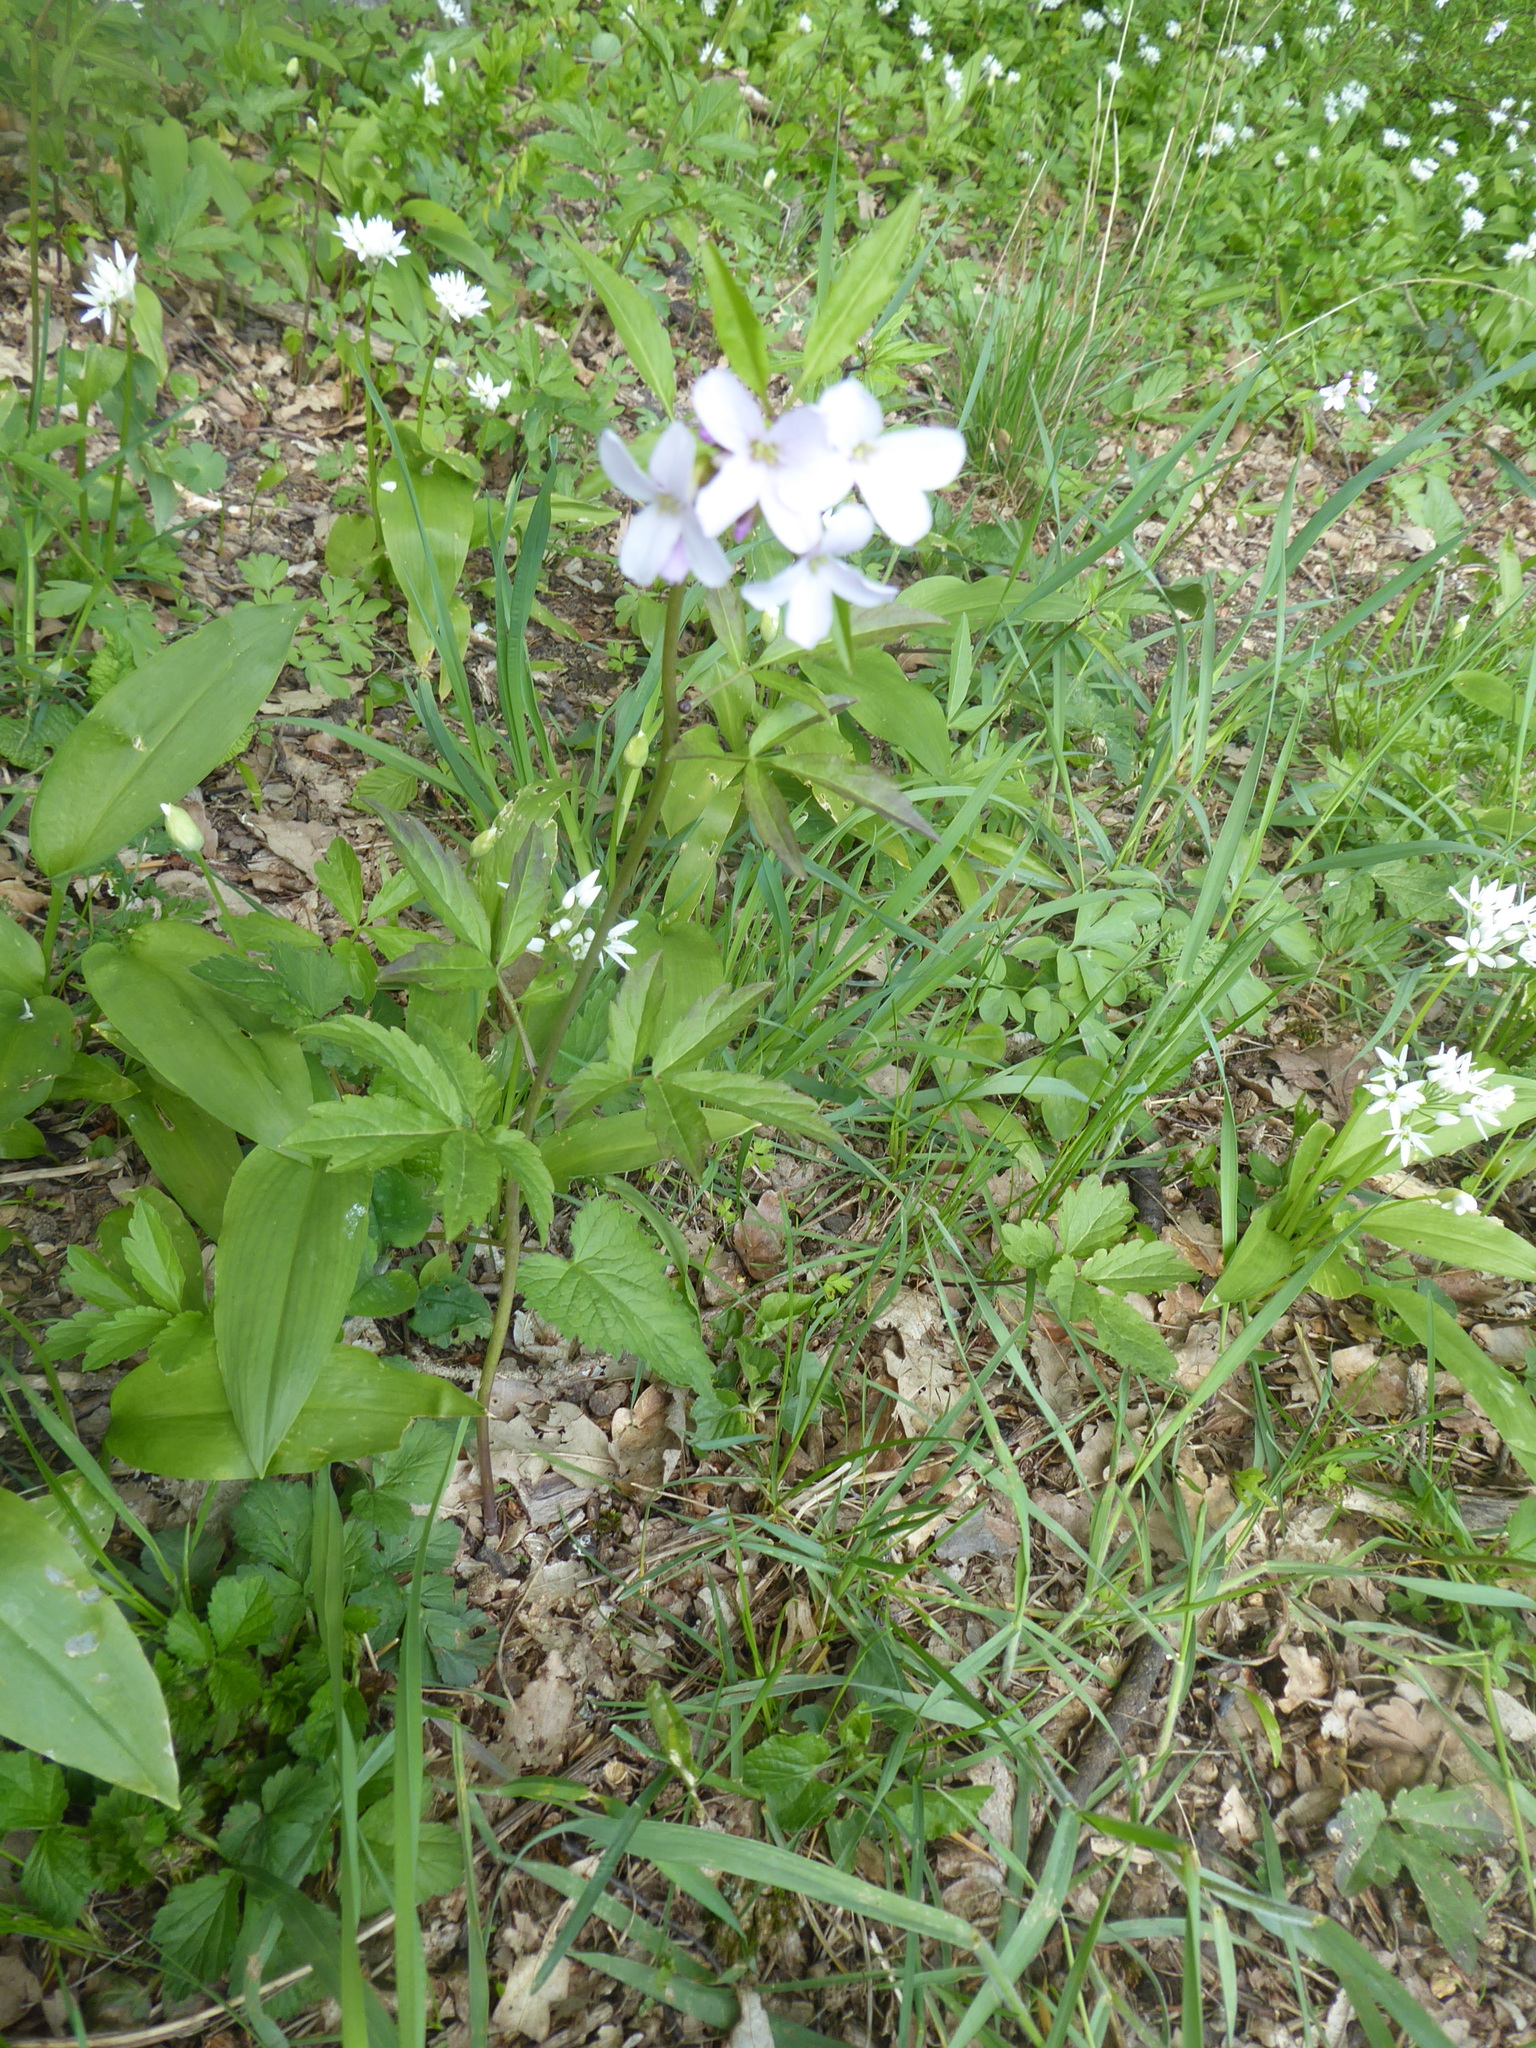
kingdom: Plantae
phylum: Tracheophyta
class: Magnoliopsida
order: Brassicales
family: Brassicaceae
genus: Cardamine
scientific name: Cardamine bulbifera
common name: Coralroot bittercress
